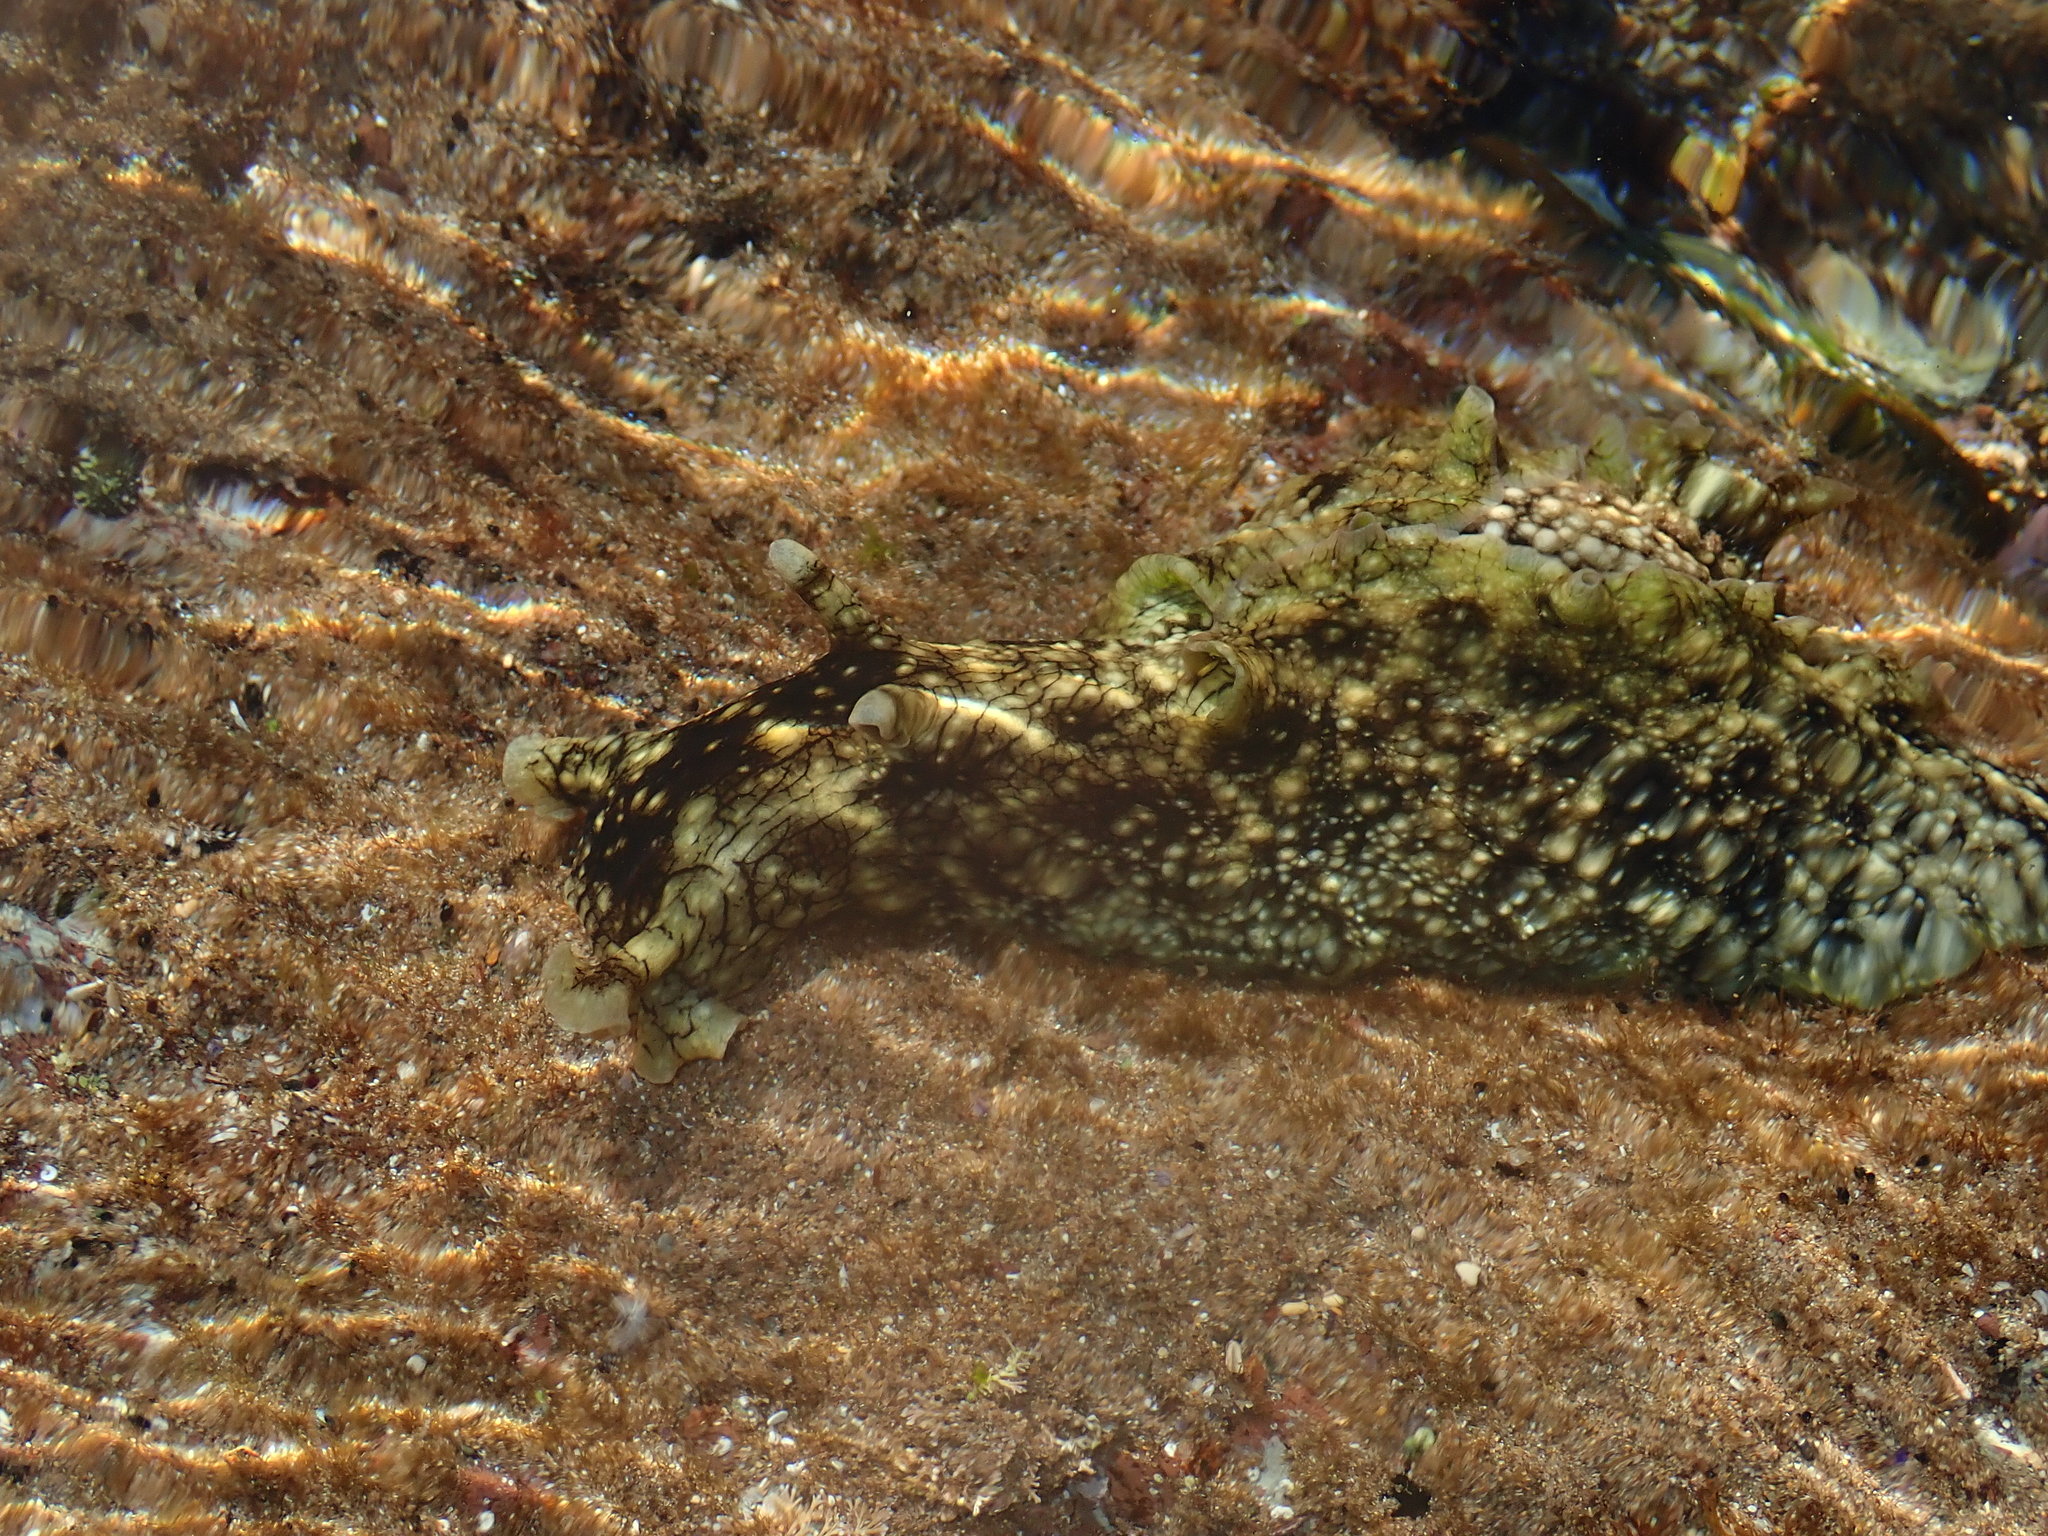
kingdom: Animalia
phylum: Mollusca
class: Gastropoda
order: Aplysiida
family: Aplysiidae
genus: Aplysia
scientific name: Aplysia argus
